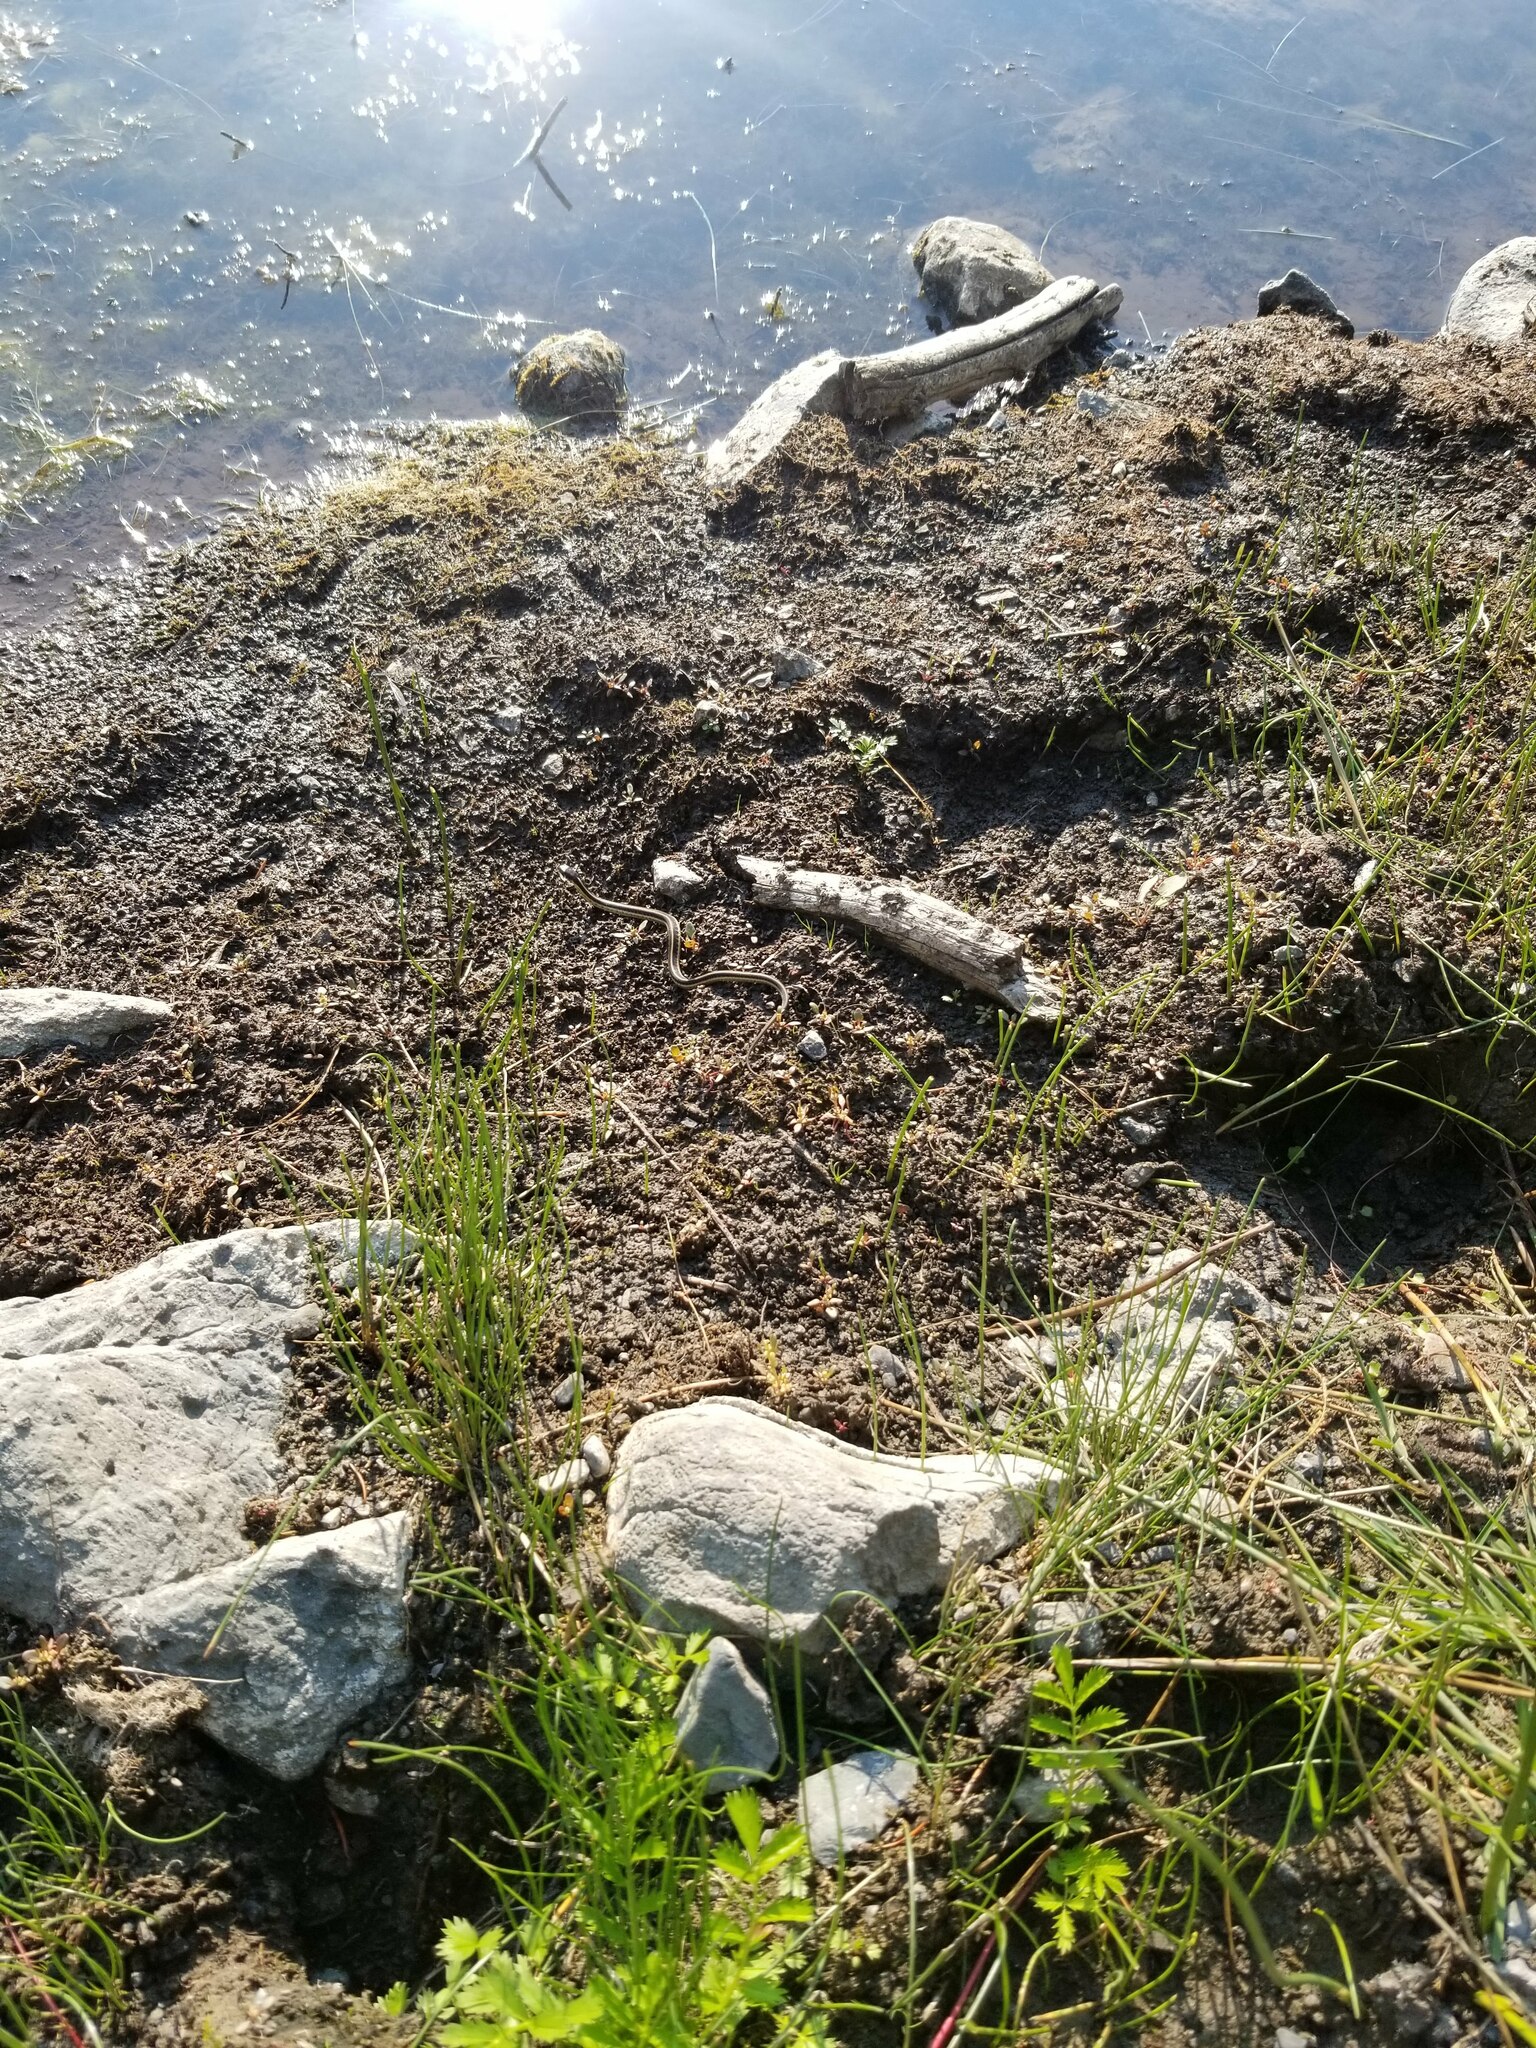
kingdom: Animalia
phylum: Chordata
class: Squamata
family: Colubridae
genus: Thamnophis
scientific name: Thamnophis sirtalis
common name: Common garter snake
